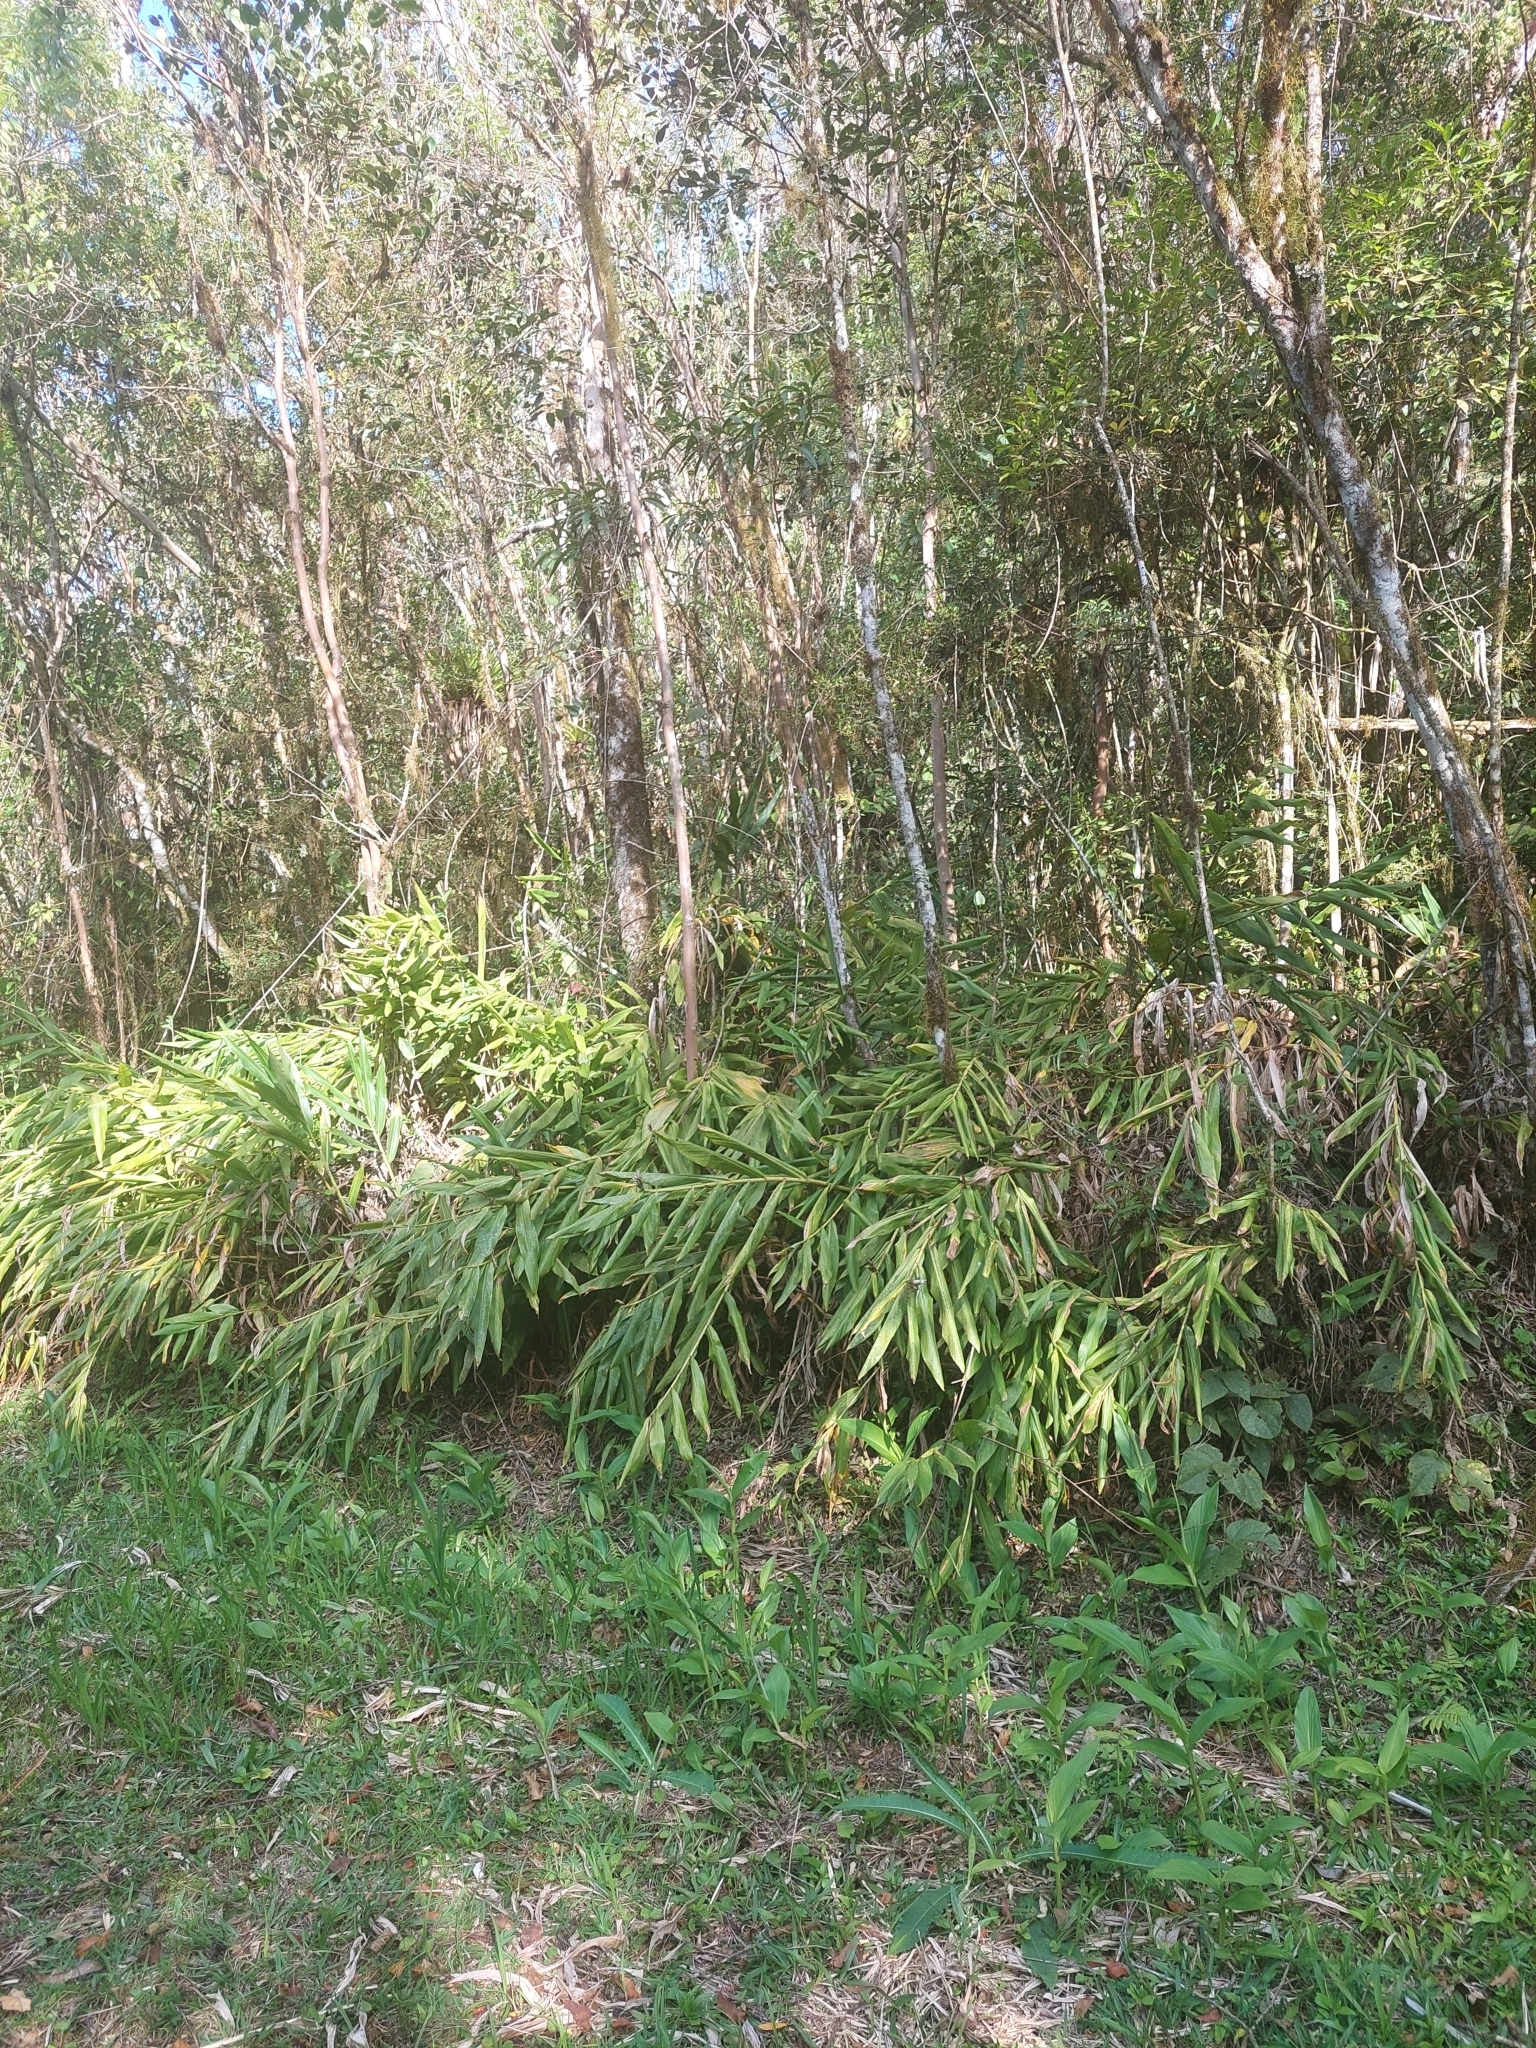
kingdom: Plantae
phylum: Tracheophyta
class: Liliopsida
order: Zingiberales
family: Zingiberaceae
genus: Hedychium
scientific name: Hedychium coronarium
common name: White garland-lily
